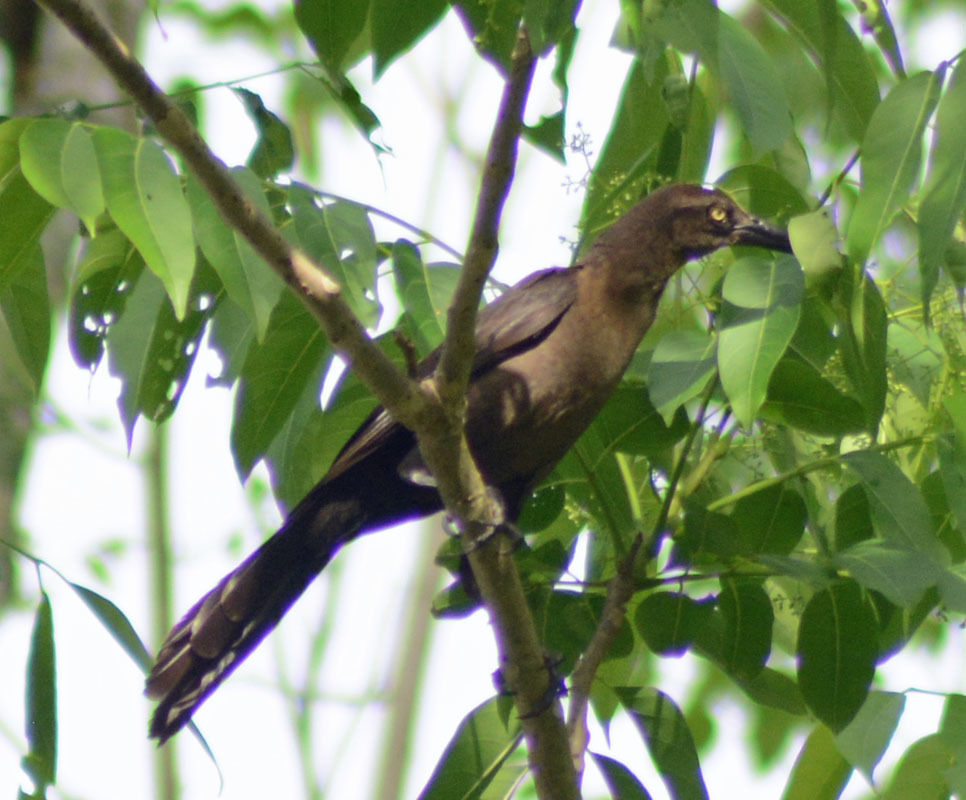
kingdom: Animalia
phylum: Chordata
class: Aves
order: Passeriformes
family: Icteridae
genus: Quiscalus
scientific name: Quiscalus mexicanus
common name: Great-tailed grackle
